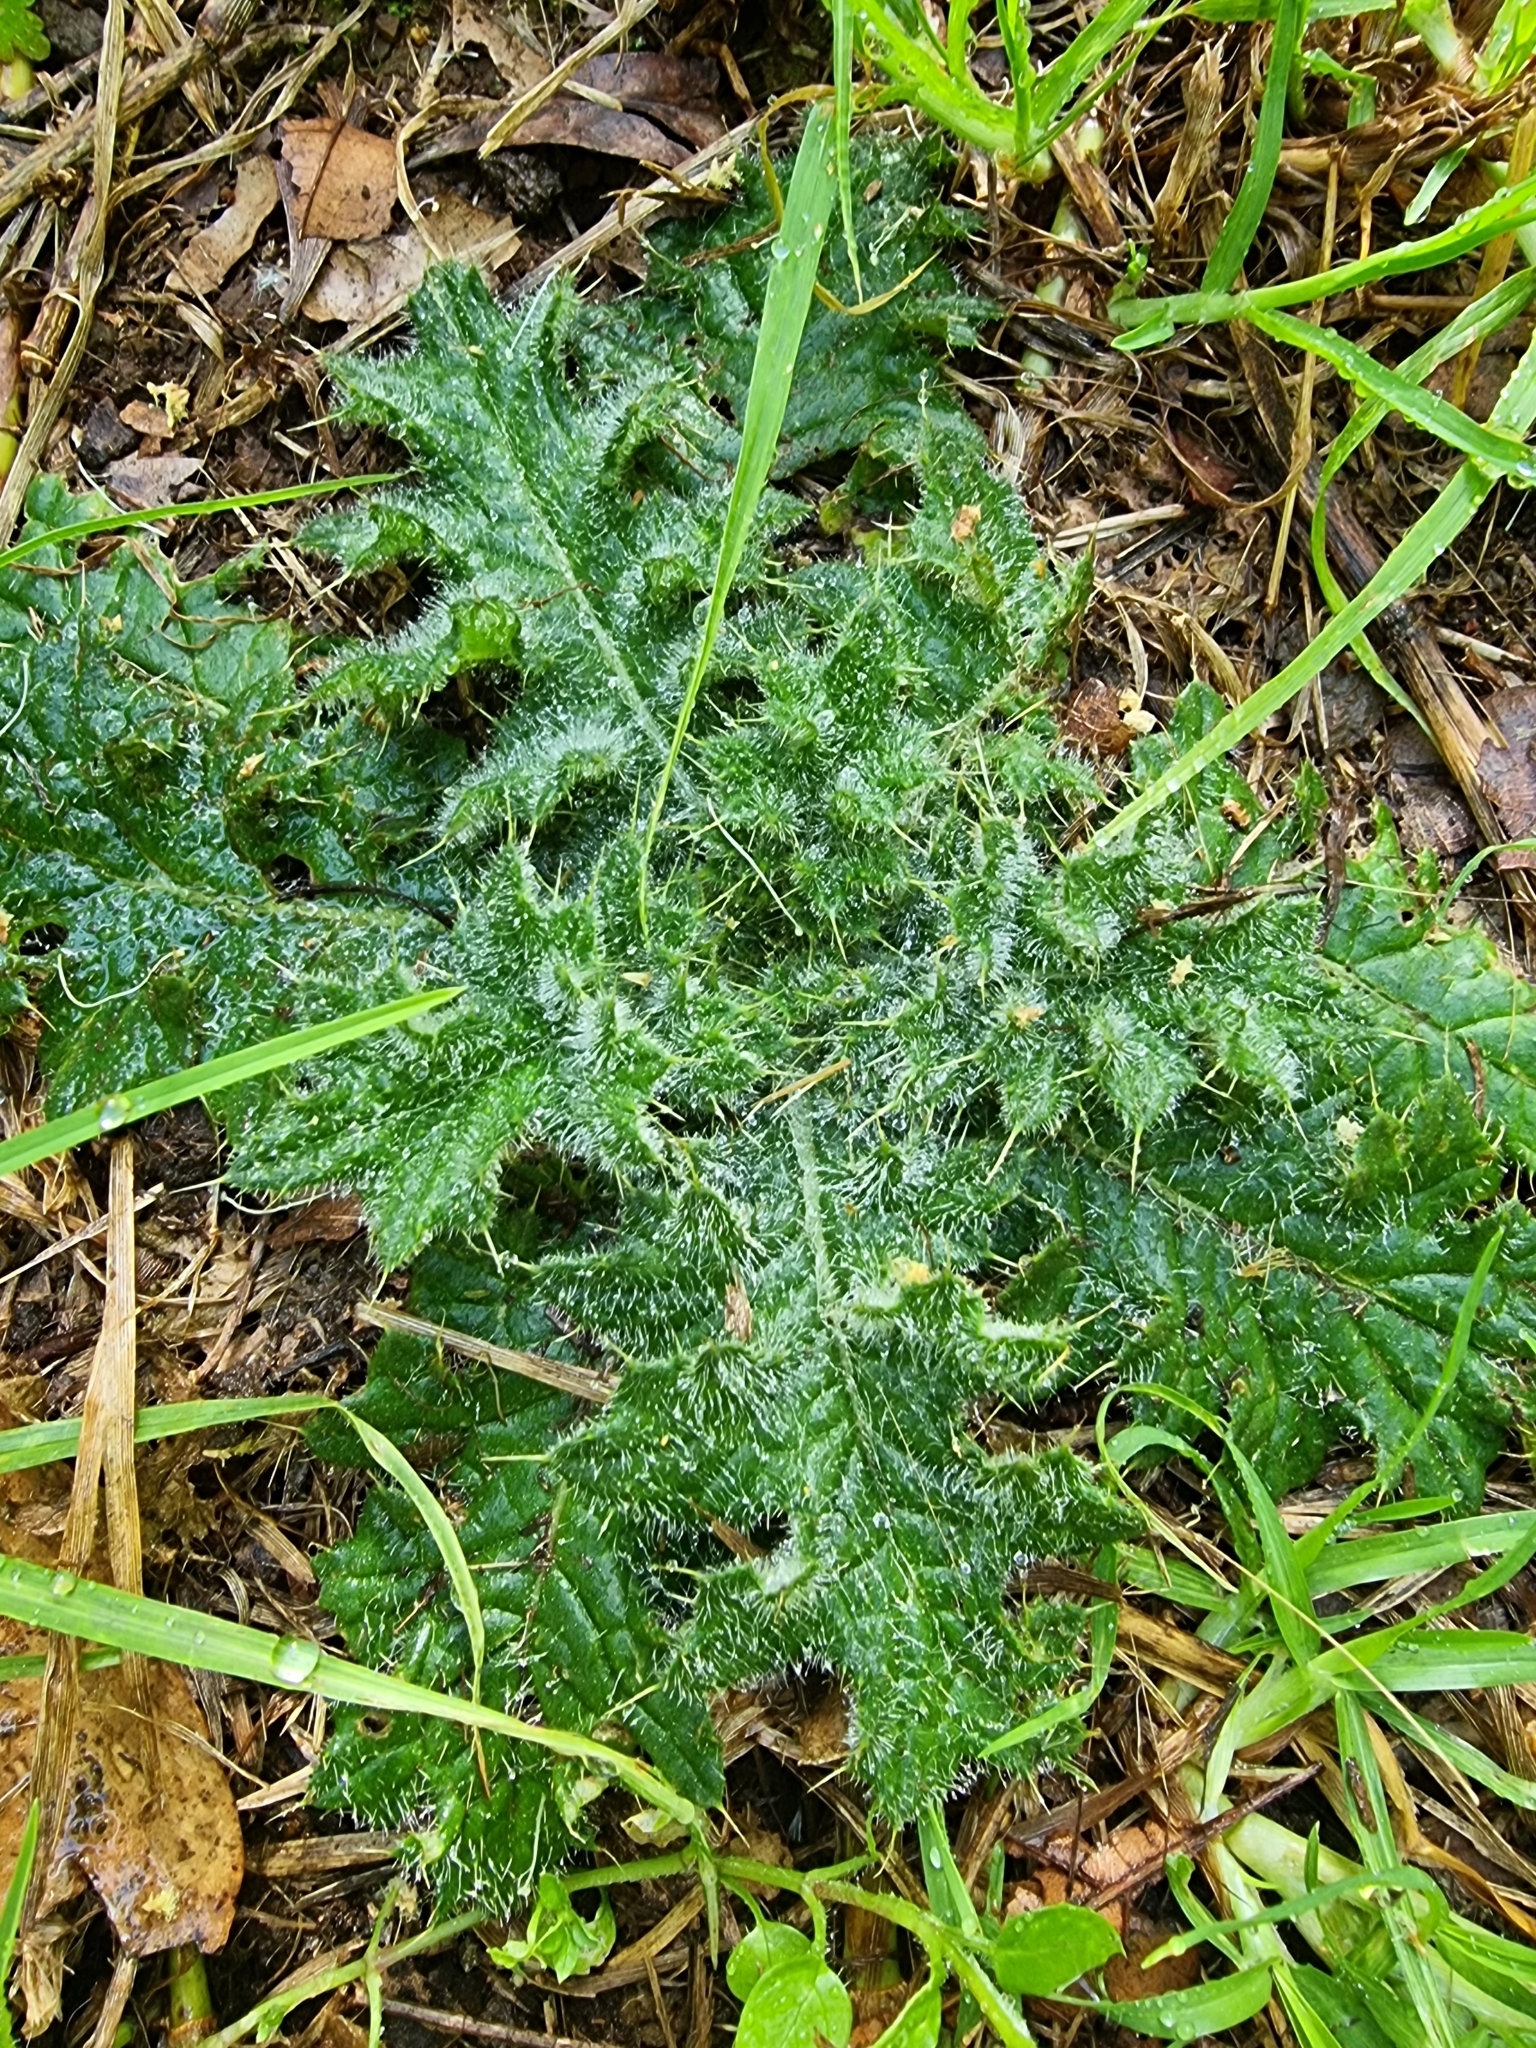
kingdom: Plantae
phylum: Tracheophyta
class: Magnoliopsida
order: Asterales
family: Asteraceae
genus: Cirsium
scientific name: Cirsium vulgare
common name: Bull thistle
